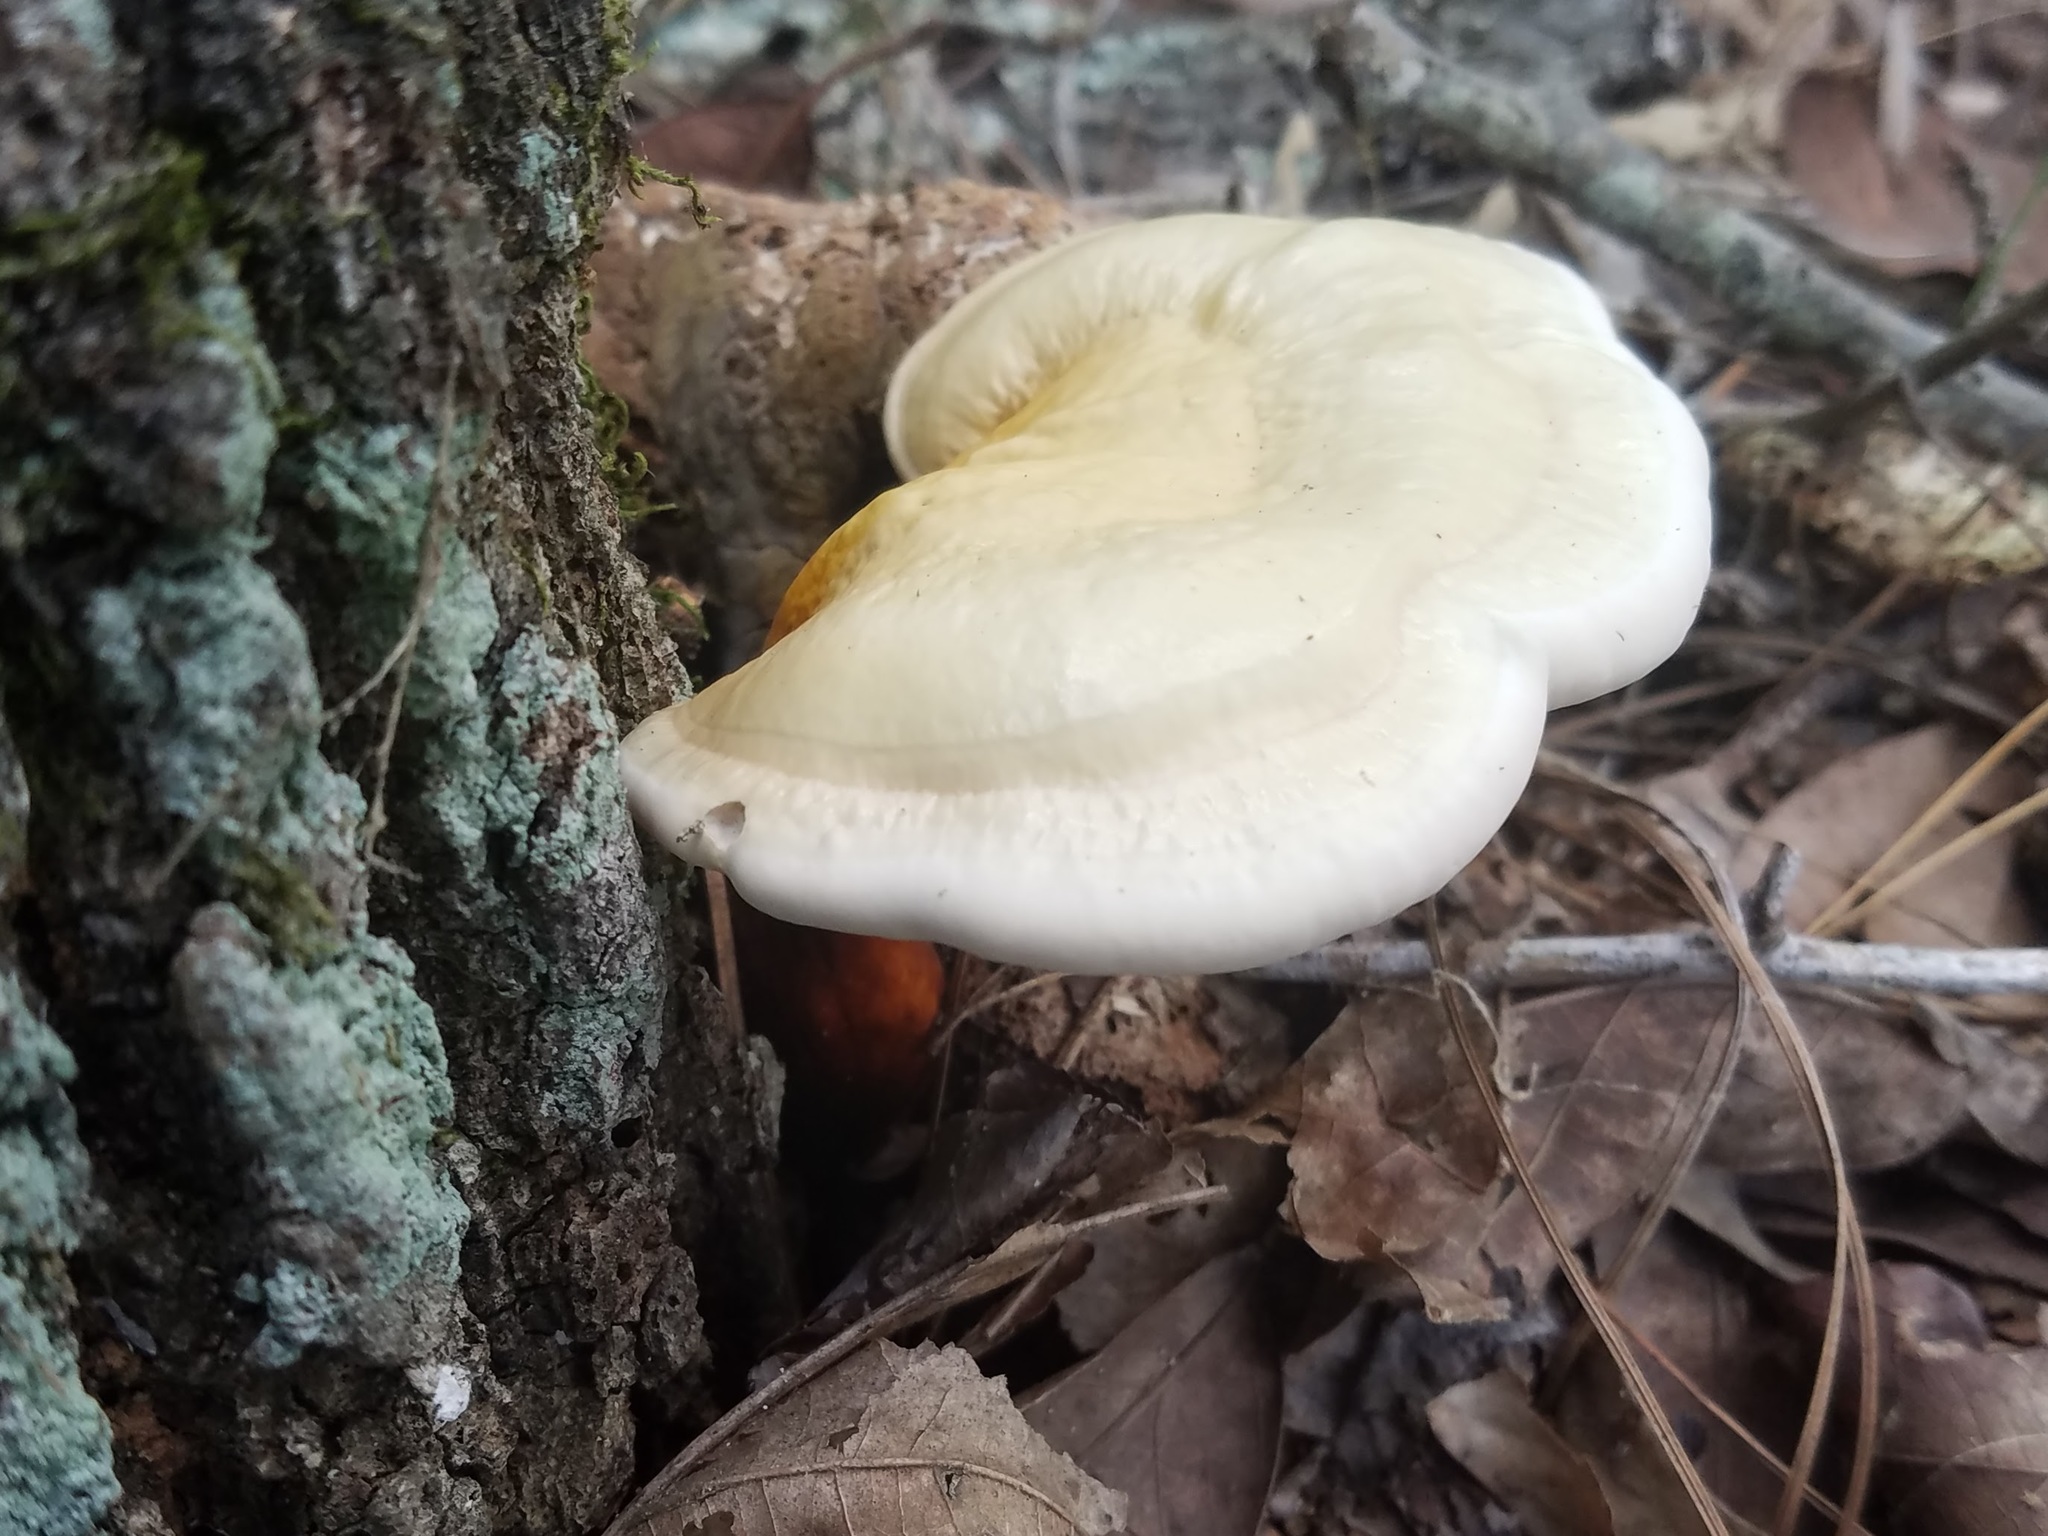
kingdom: Fungi
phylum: Basidiomycota
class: Agaricomycetes
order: Polyporales
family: Polyporaceae
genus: Ganoderma
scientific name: Ganoderma curtisii
